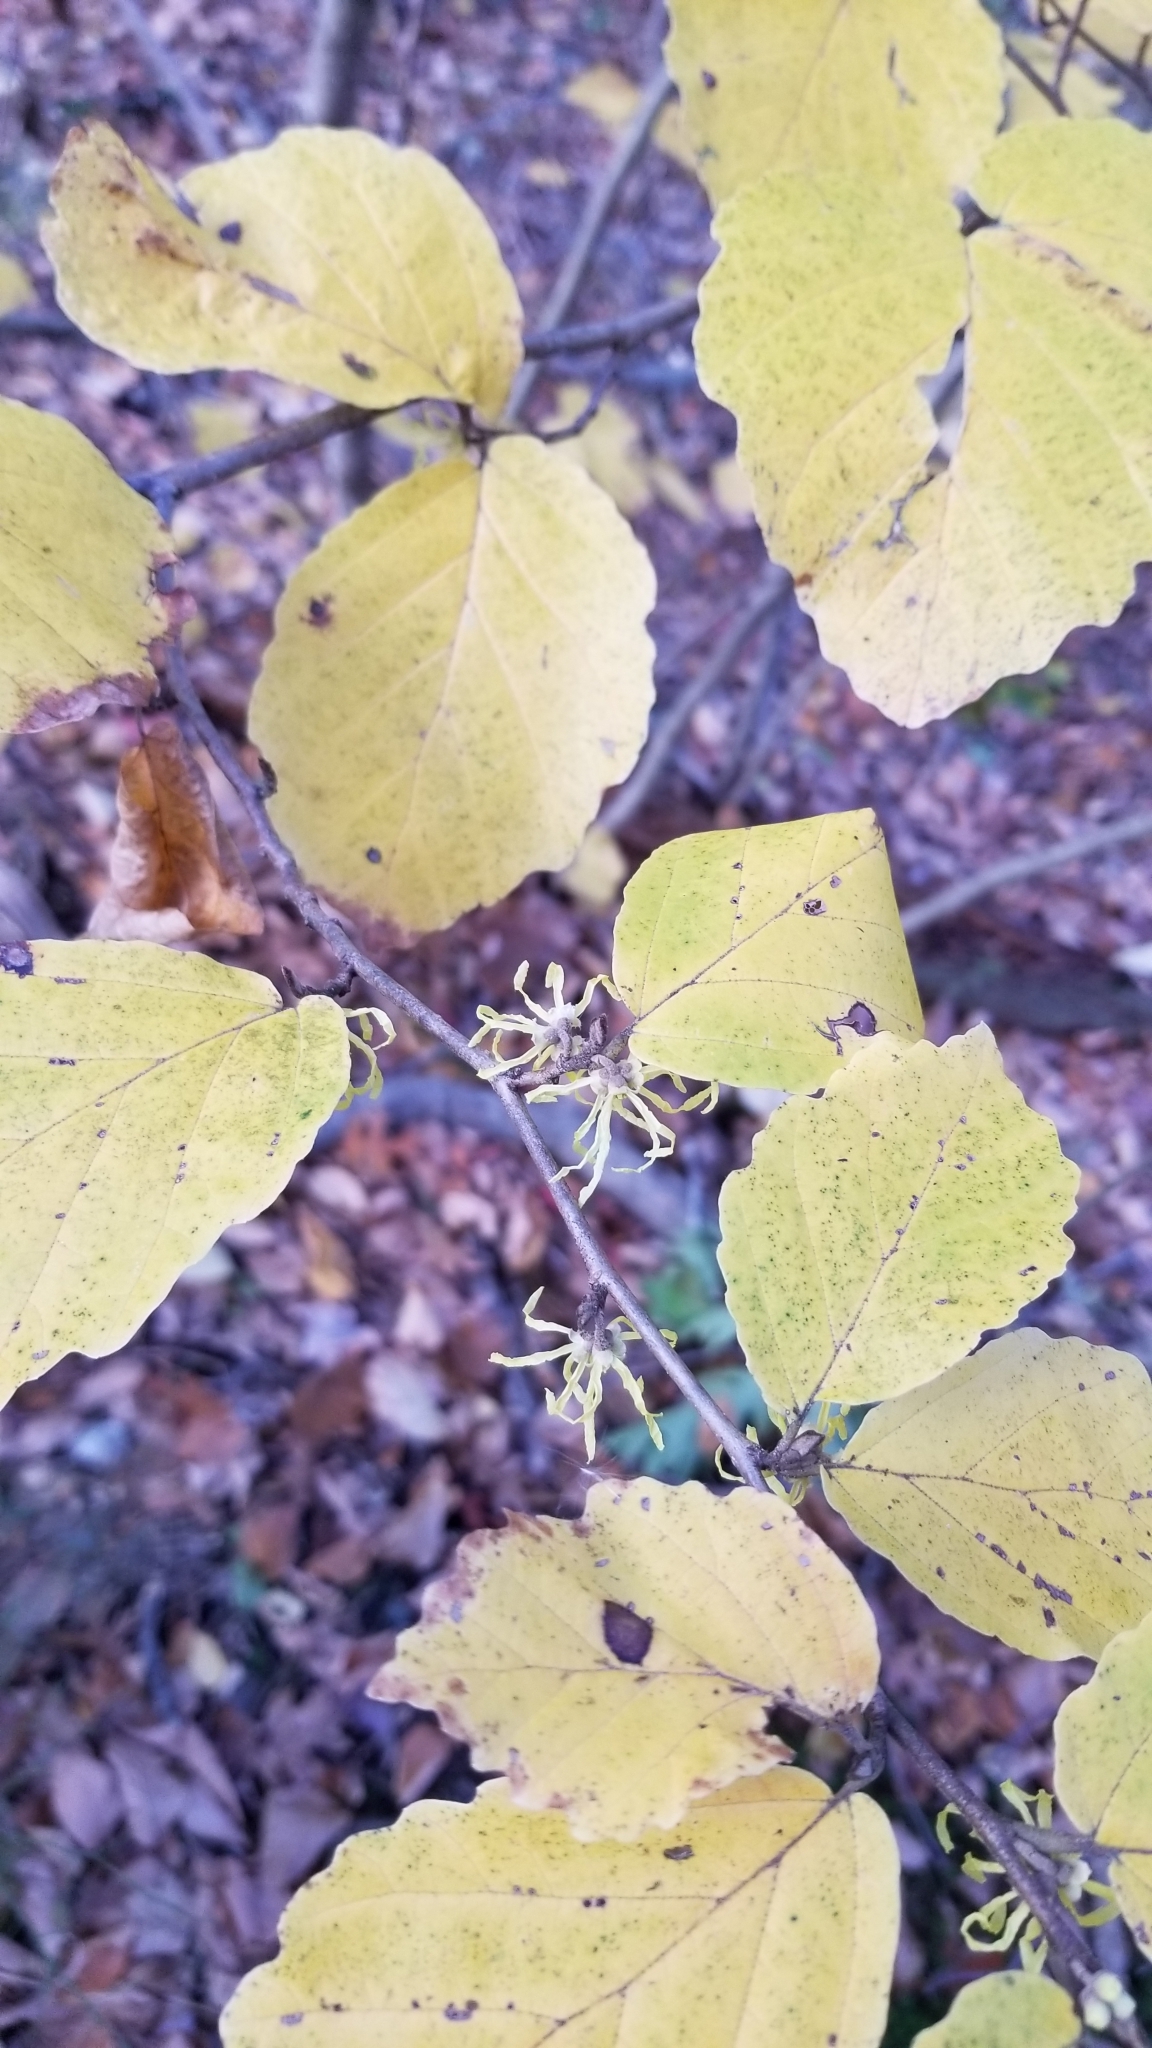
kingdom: Plantae
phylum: Tracheophyta
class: Magnoliopsida
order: Saxifragales
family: Hamamelidaceae
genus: Hamamelis
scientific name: Hamamelis virginiana
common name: Witch-hazel
